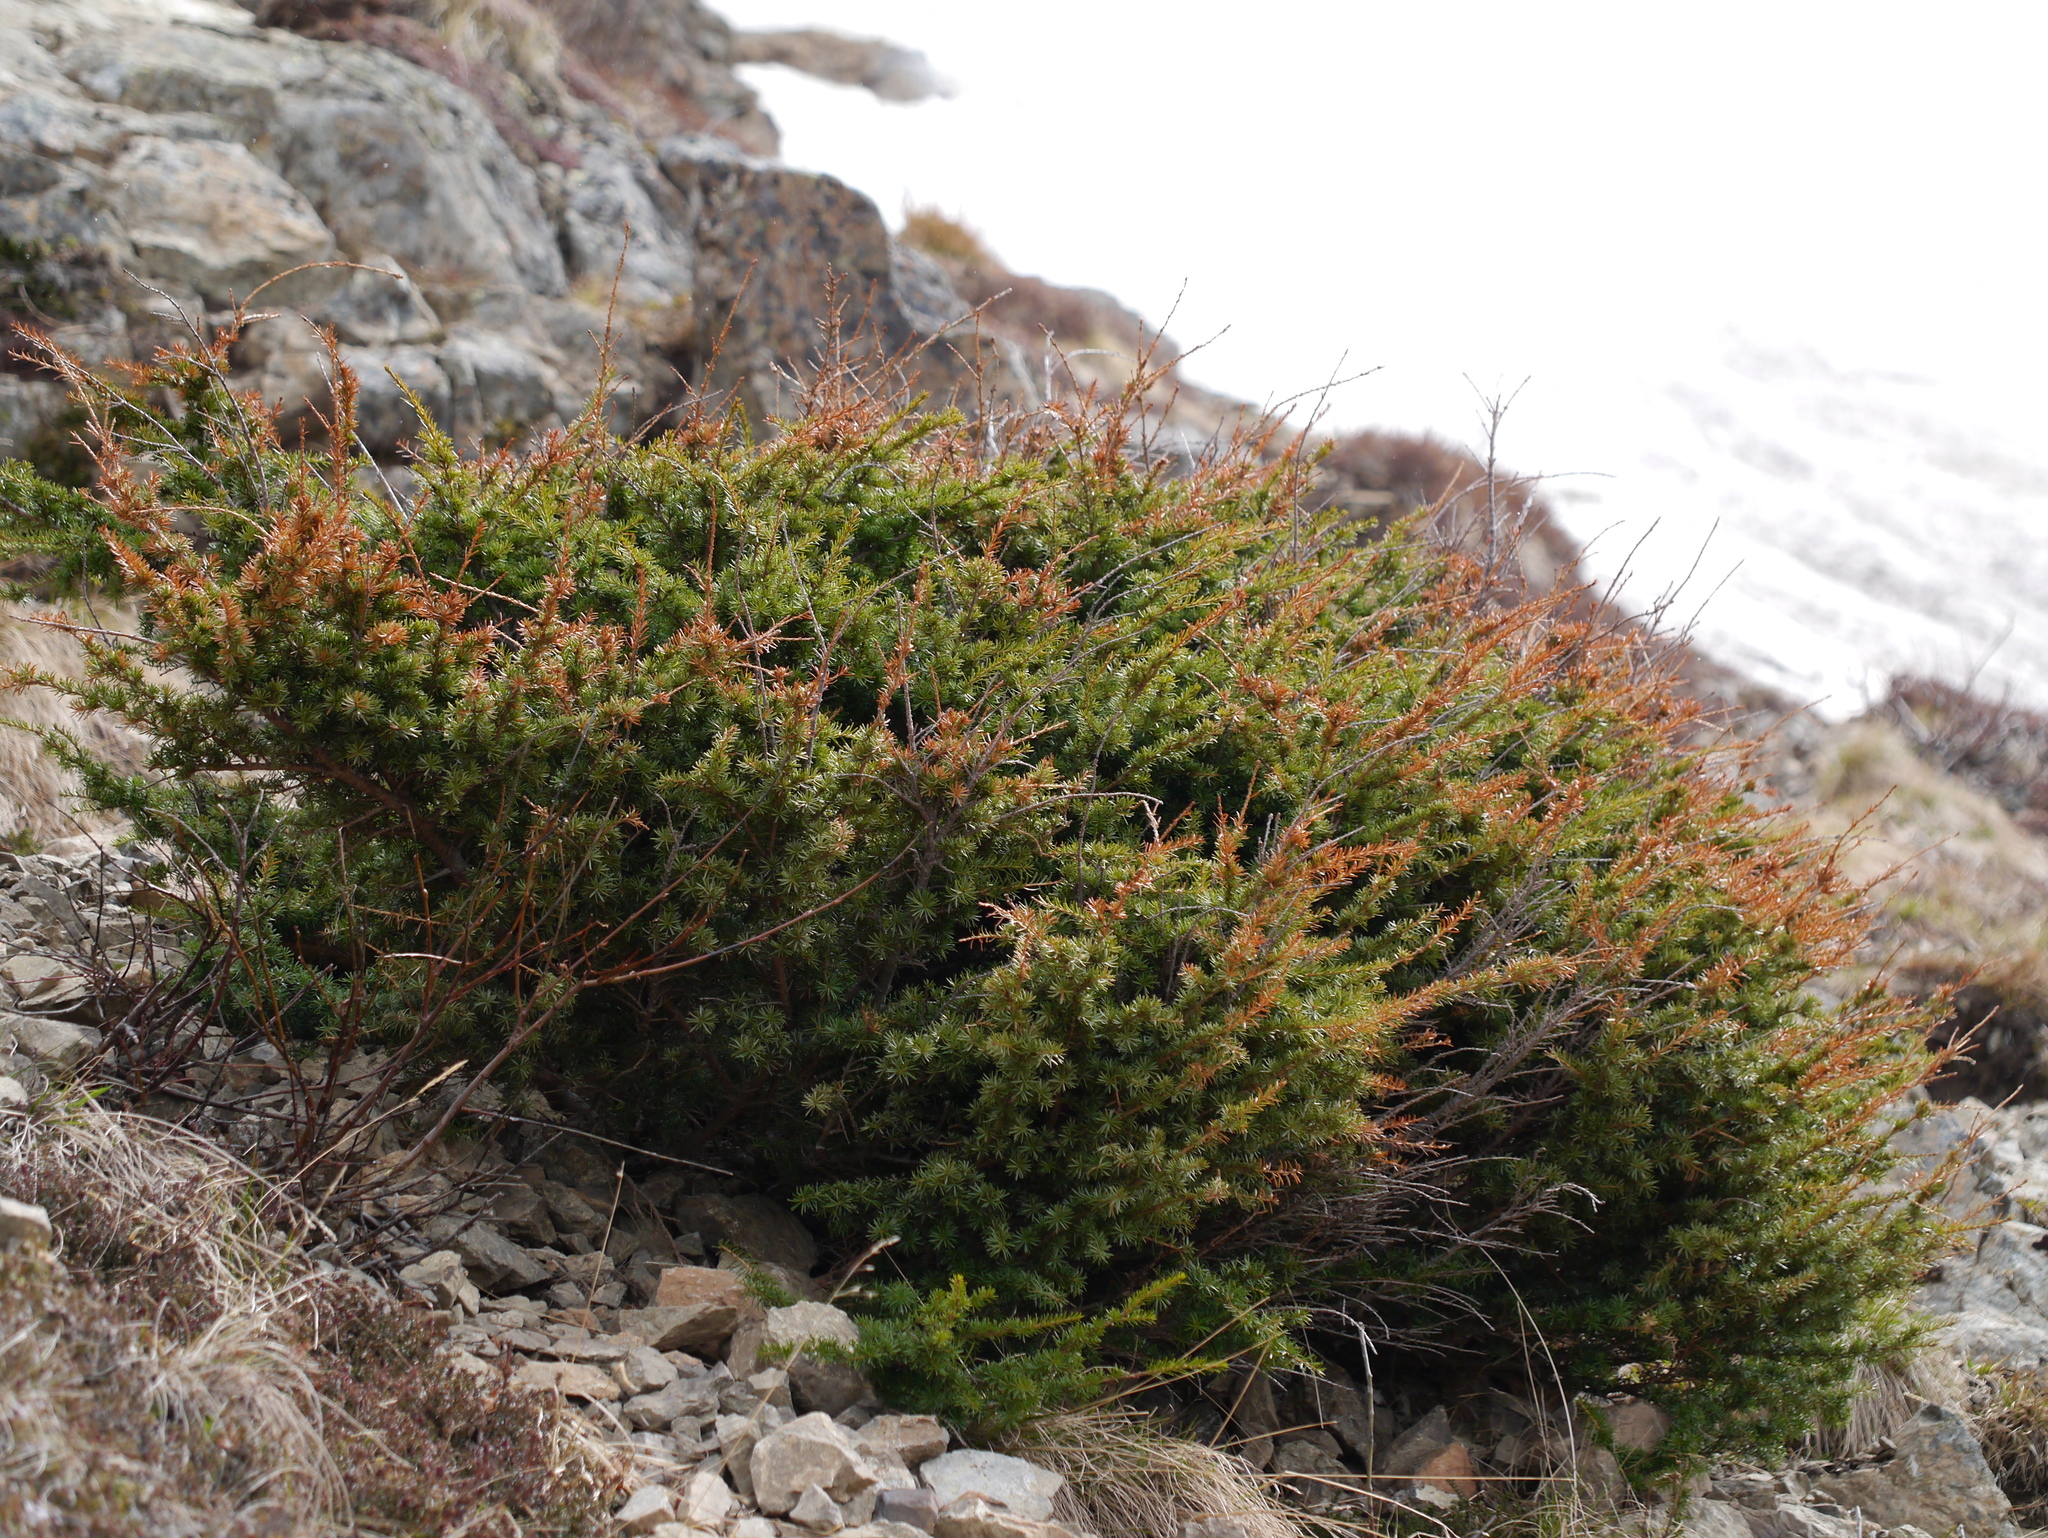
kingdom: Plantae
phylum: Tracheophyta
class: Pinopsida
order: Pinales
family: Cupressaceae
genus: Juniperus
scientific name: Juniperus communis
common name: Common juniper
